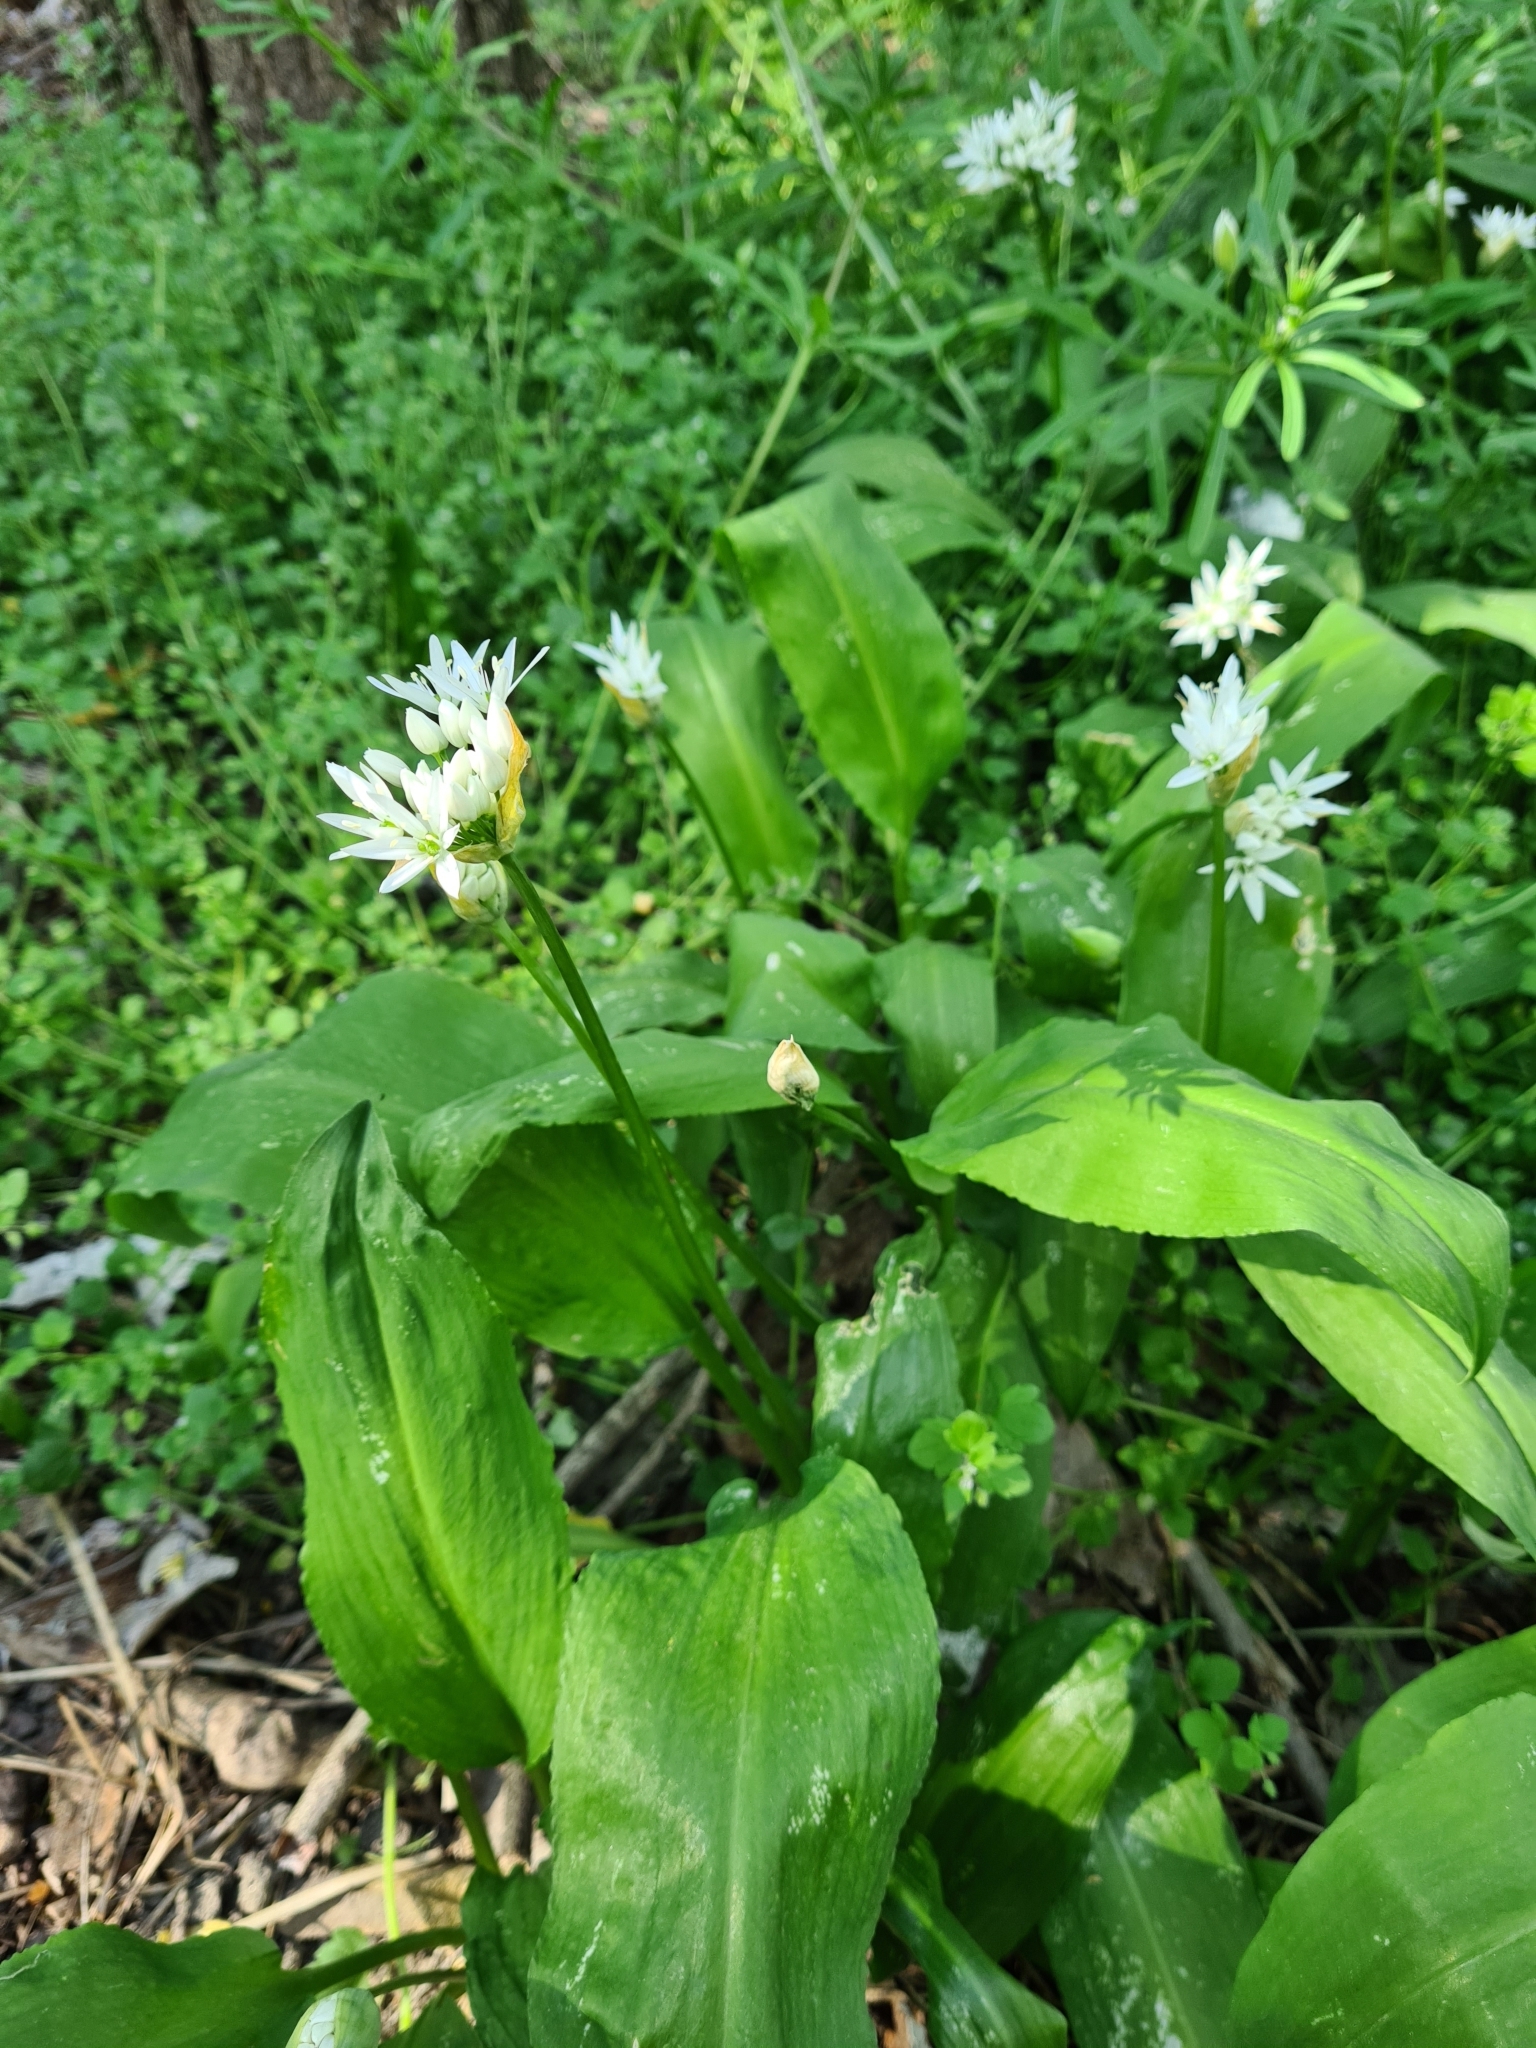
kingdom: Plantae
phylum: Tracheophyta
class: Liliopsida
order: Asparagales
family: Amaryllidaceae
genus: Allium
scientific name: Allium ursinum
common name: Ramsons
